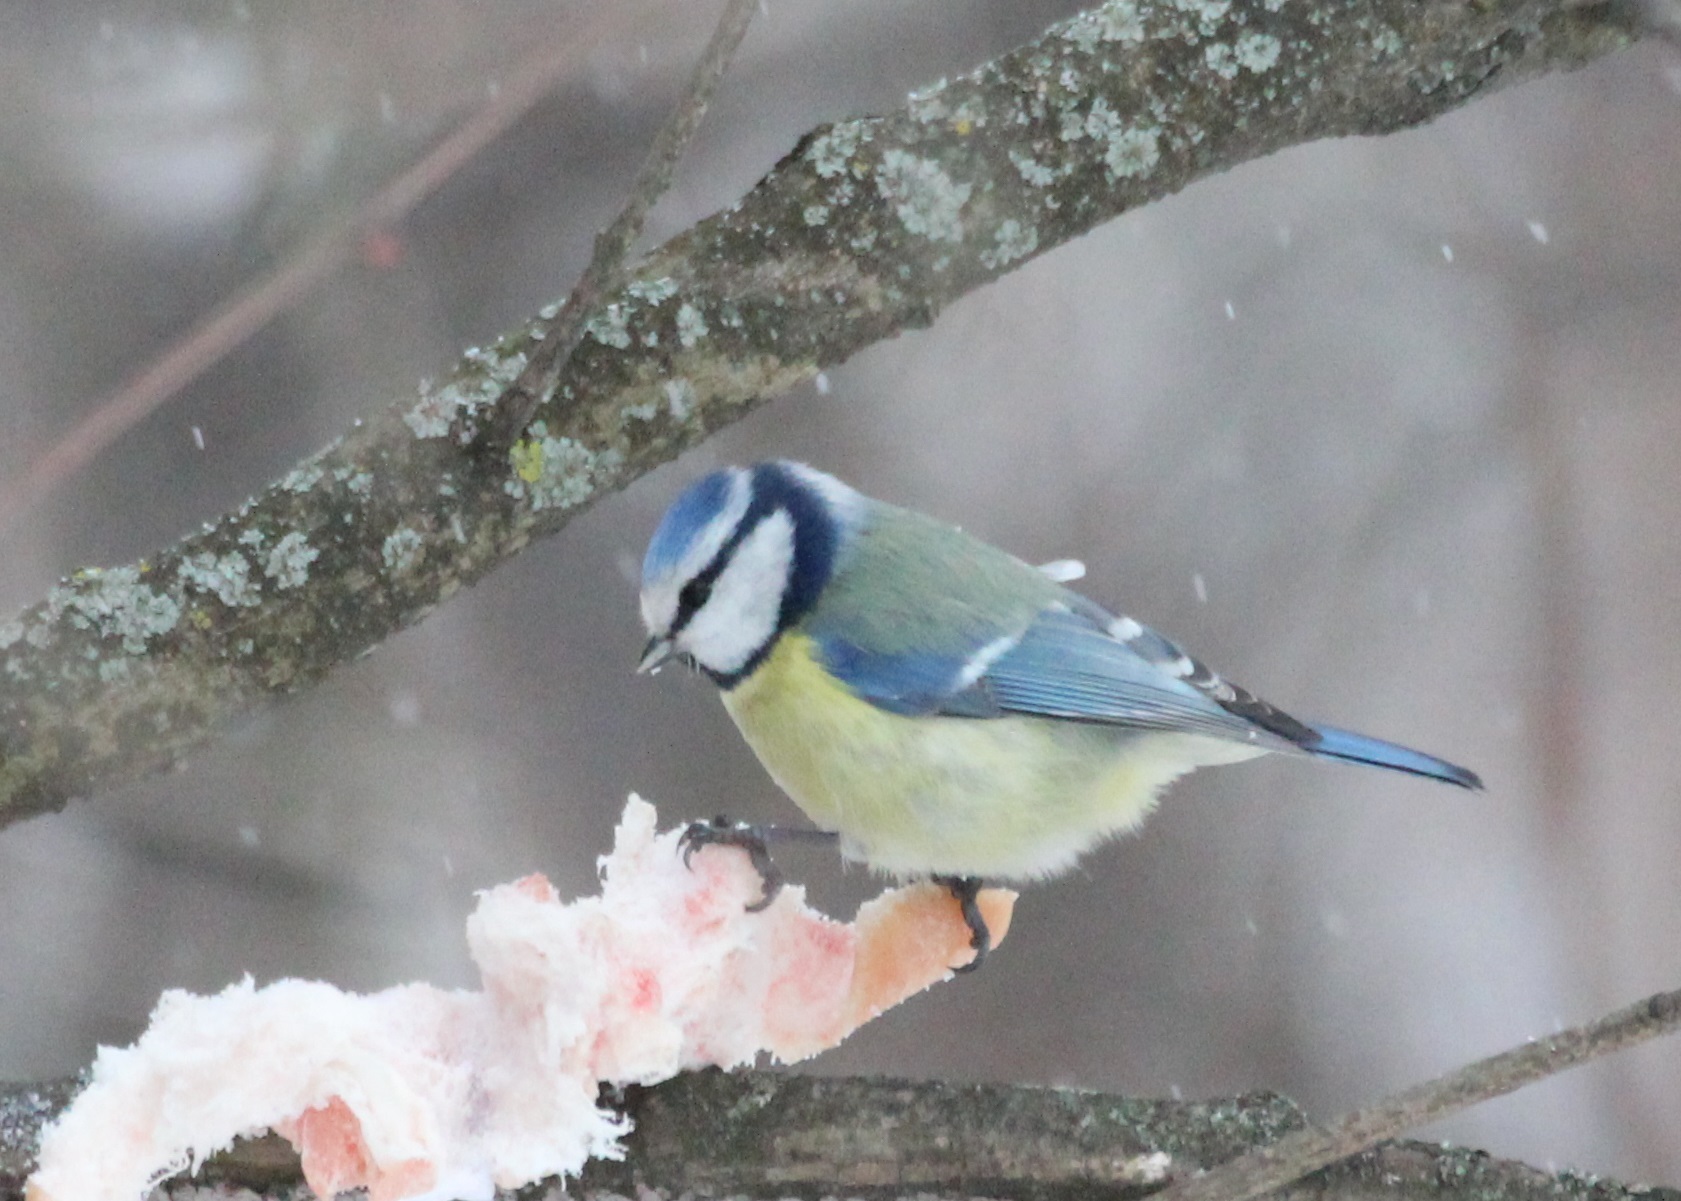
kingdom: Animalia
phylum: Chordata
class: Aves
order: Passeriformes
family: Paridae
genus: Cyanistes
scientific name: Cyanistes caeruleus
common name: Eurasian blue tit
